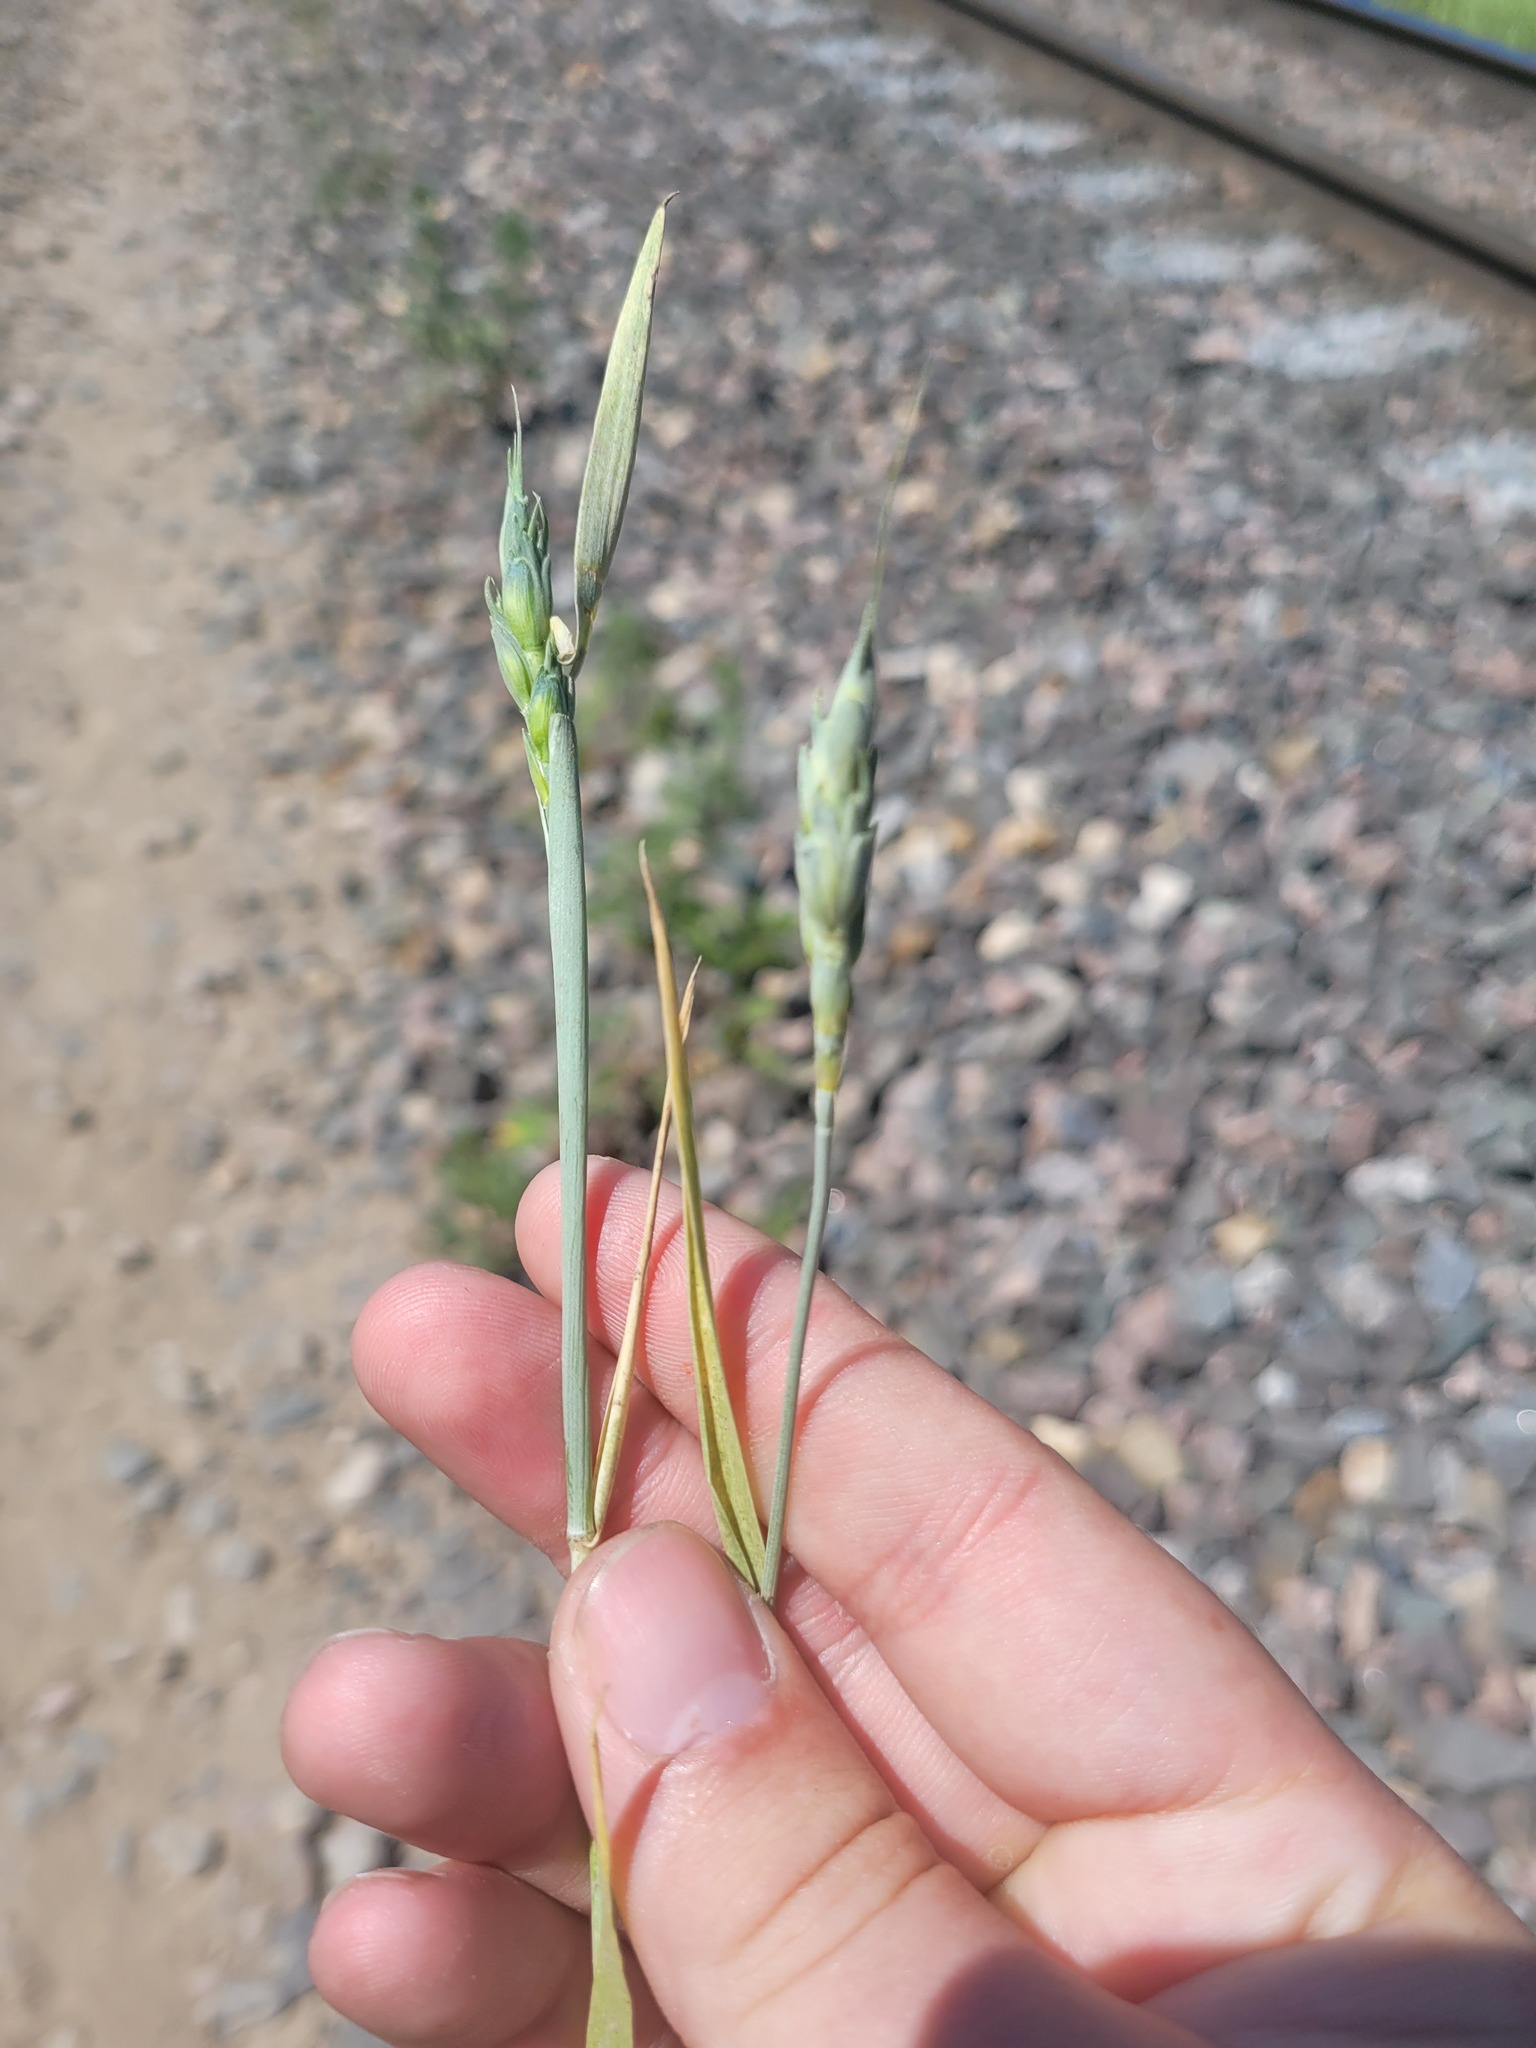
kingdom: Plantae
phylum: Tracheophyta
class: Liliopsida
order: Poales
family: Poaceae
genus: Triticum
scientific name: Triticum aestivum
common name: Common wheat
